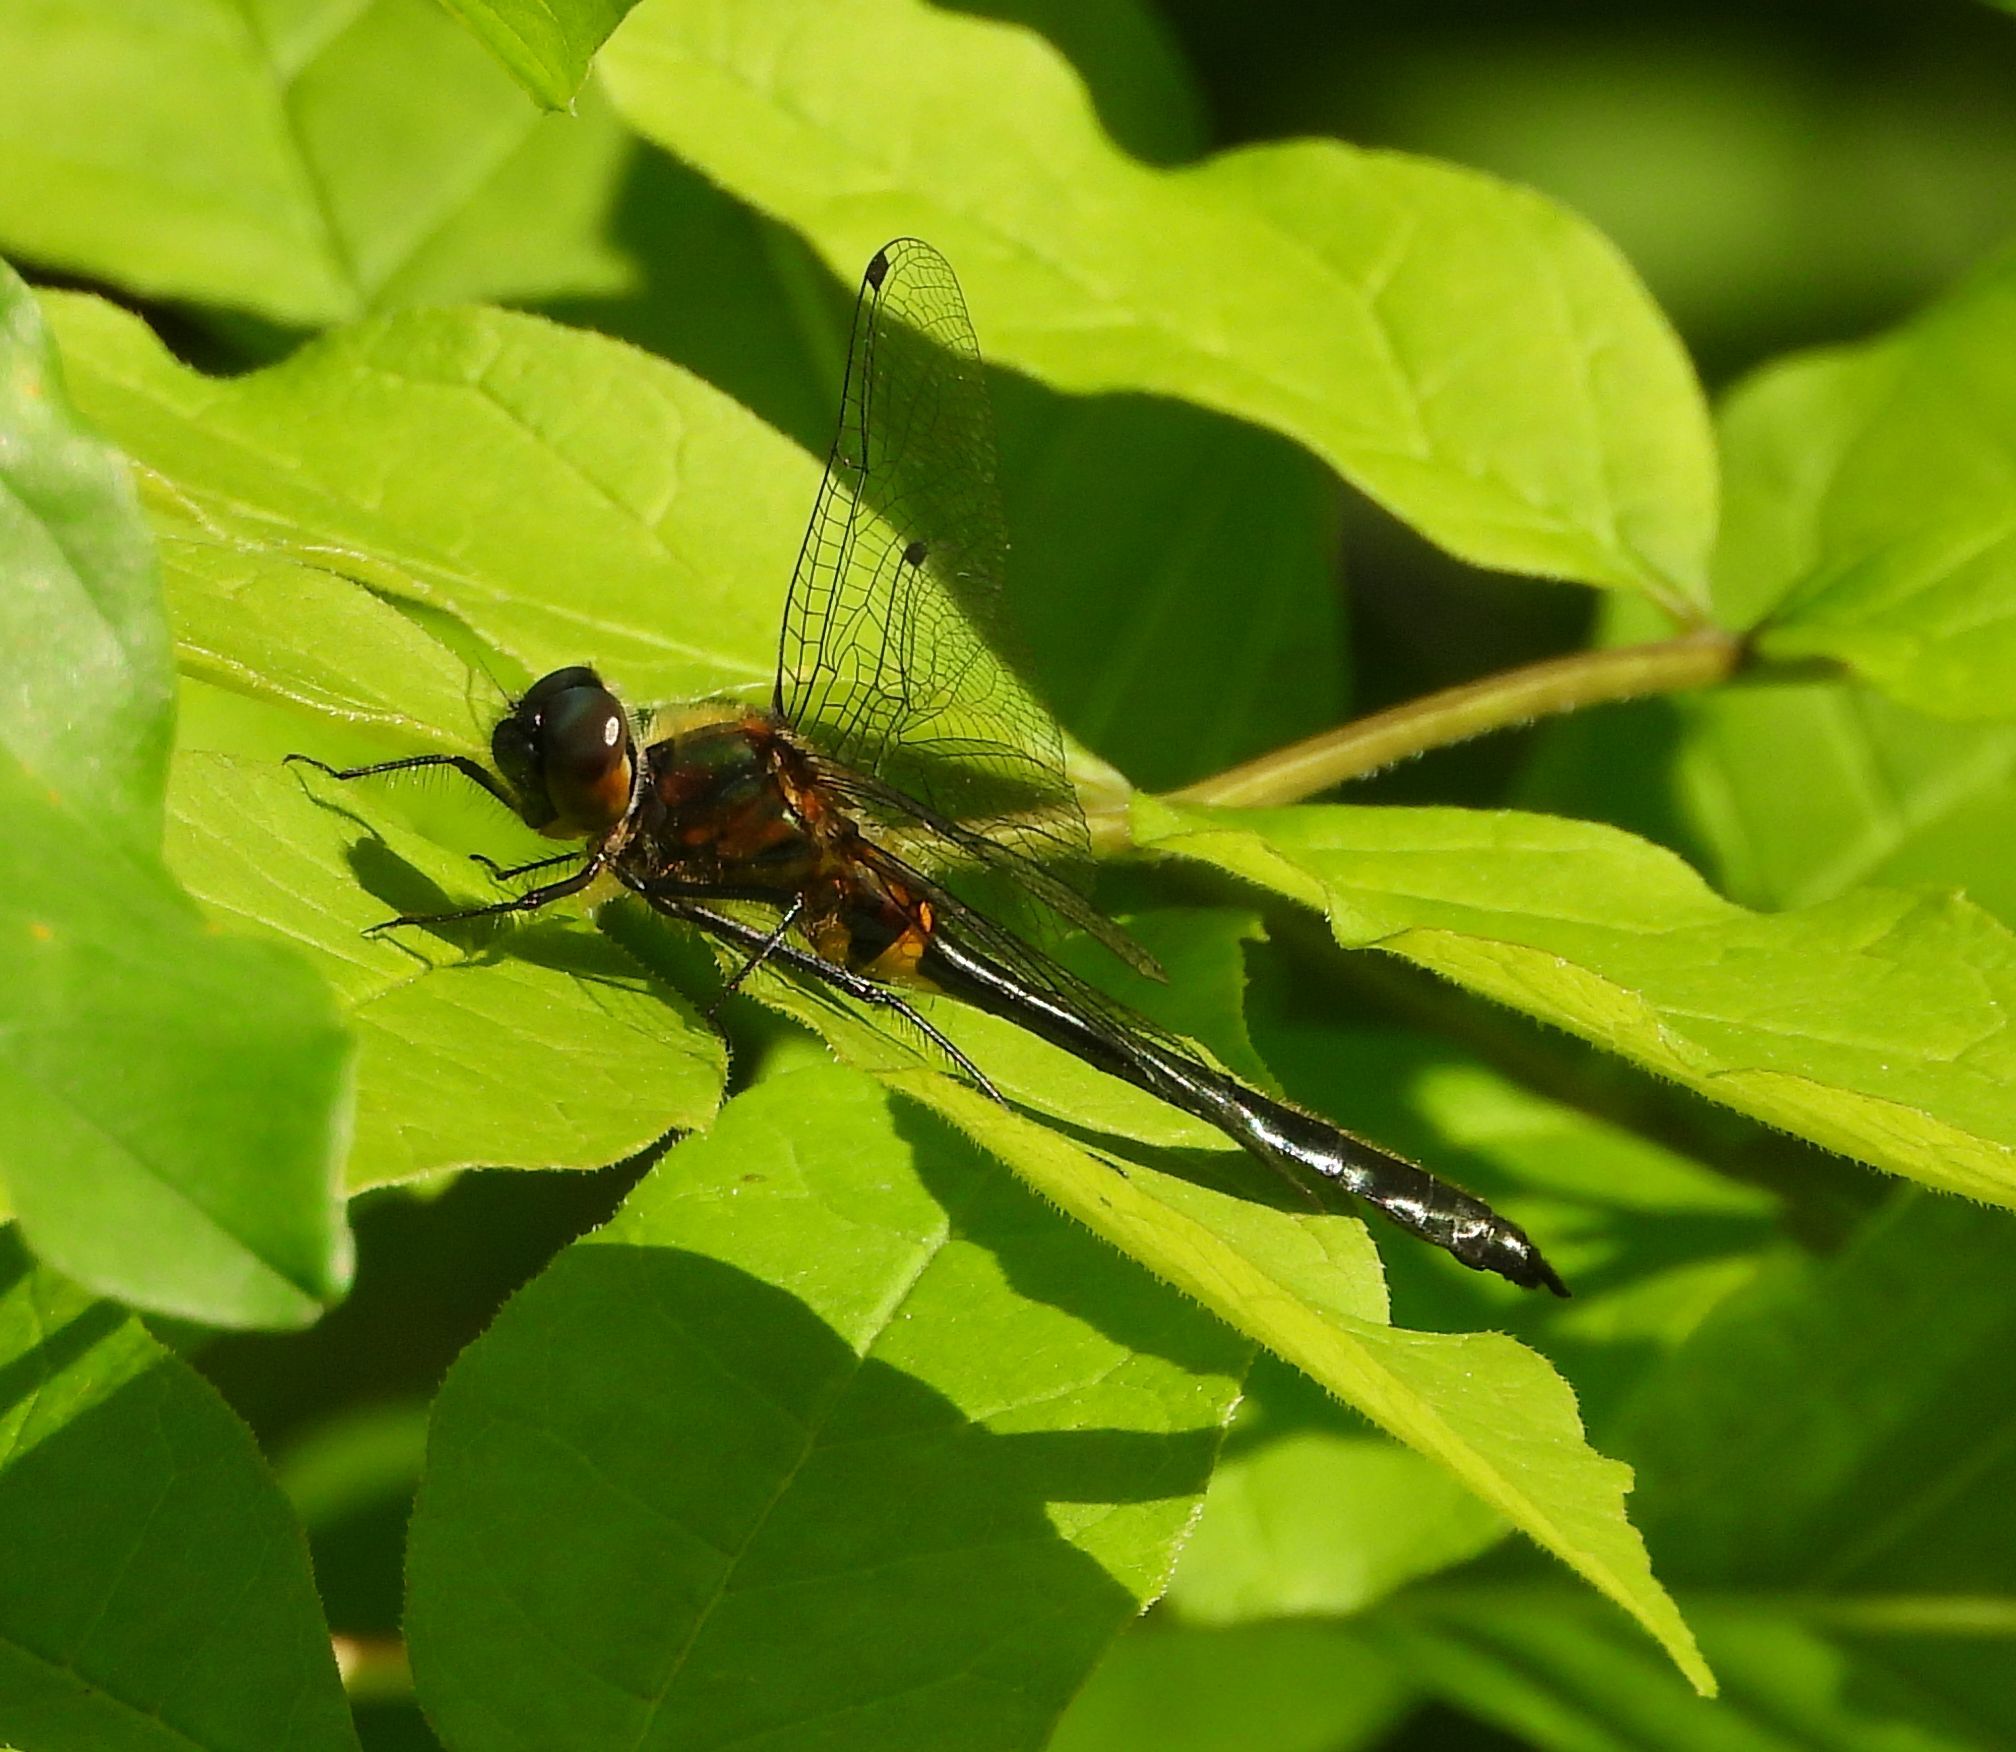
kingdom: Animalia
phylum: Arthropoda
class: Insecta
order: Odonata
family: Corduliidae
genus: Dorocordulia
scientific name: Dorocordulia libera
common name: Racket-tailed emerald
